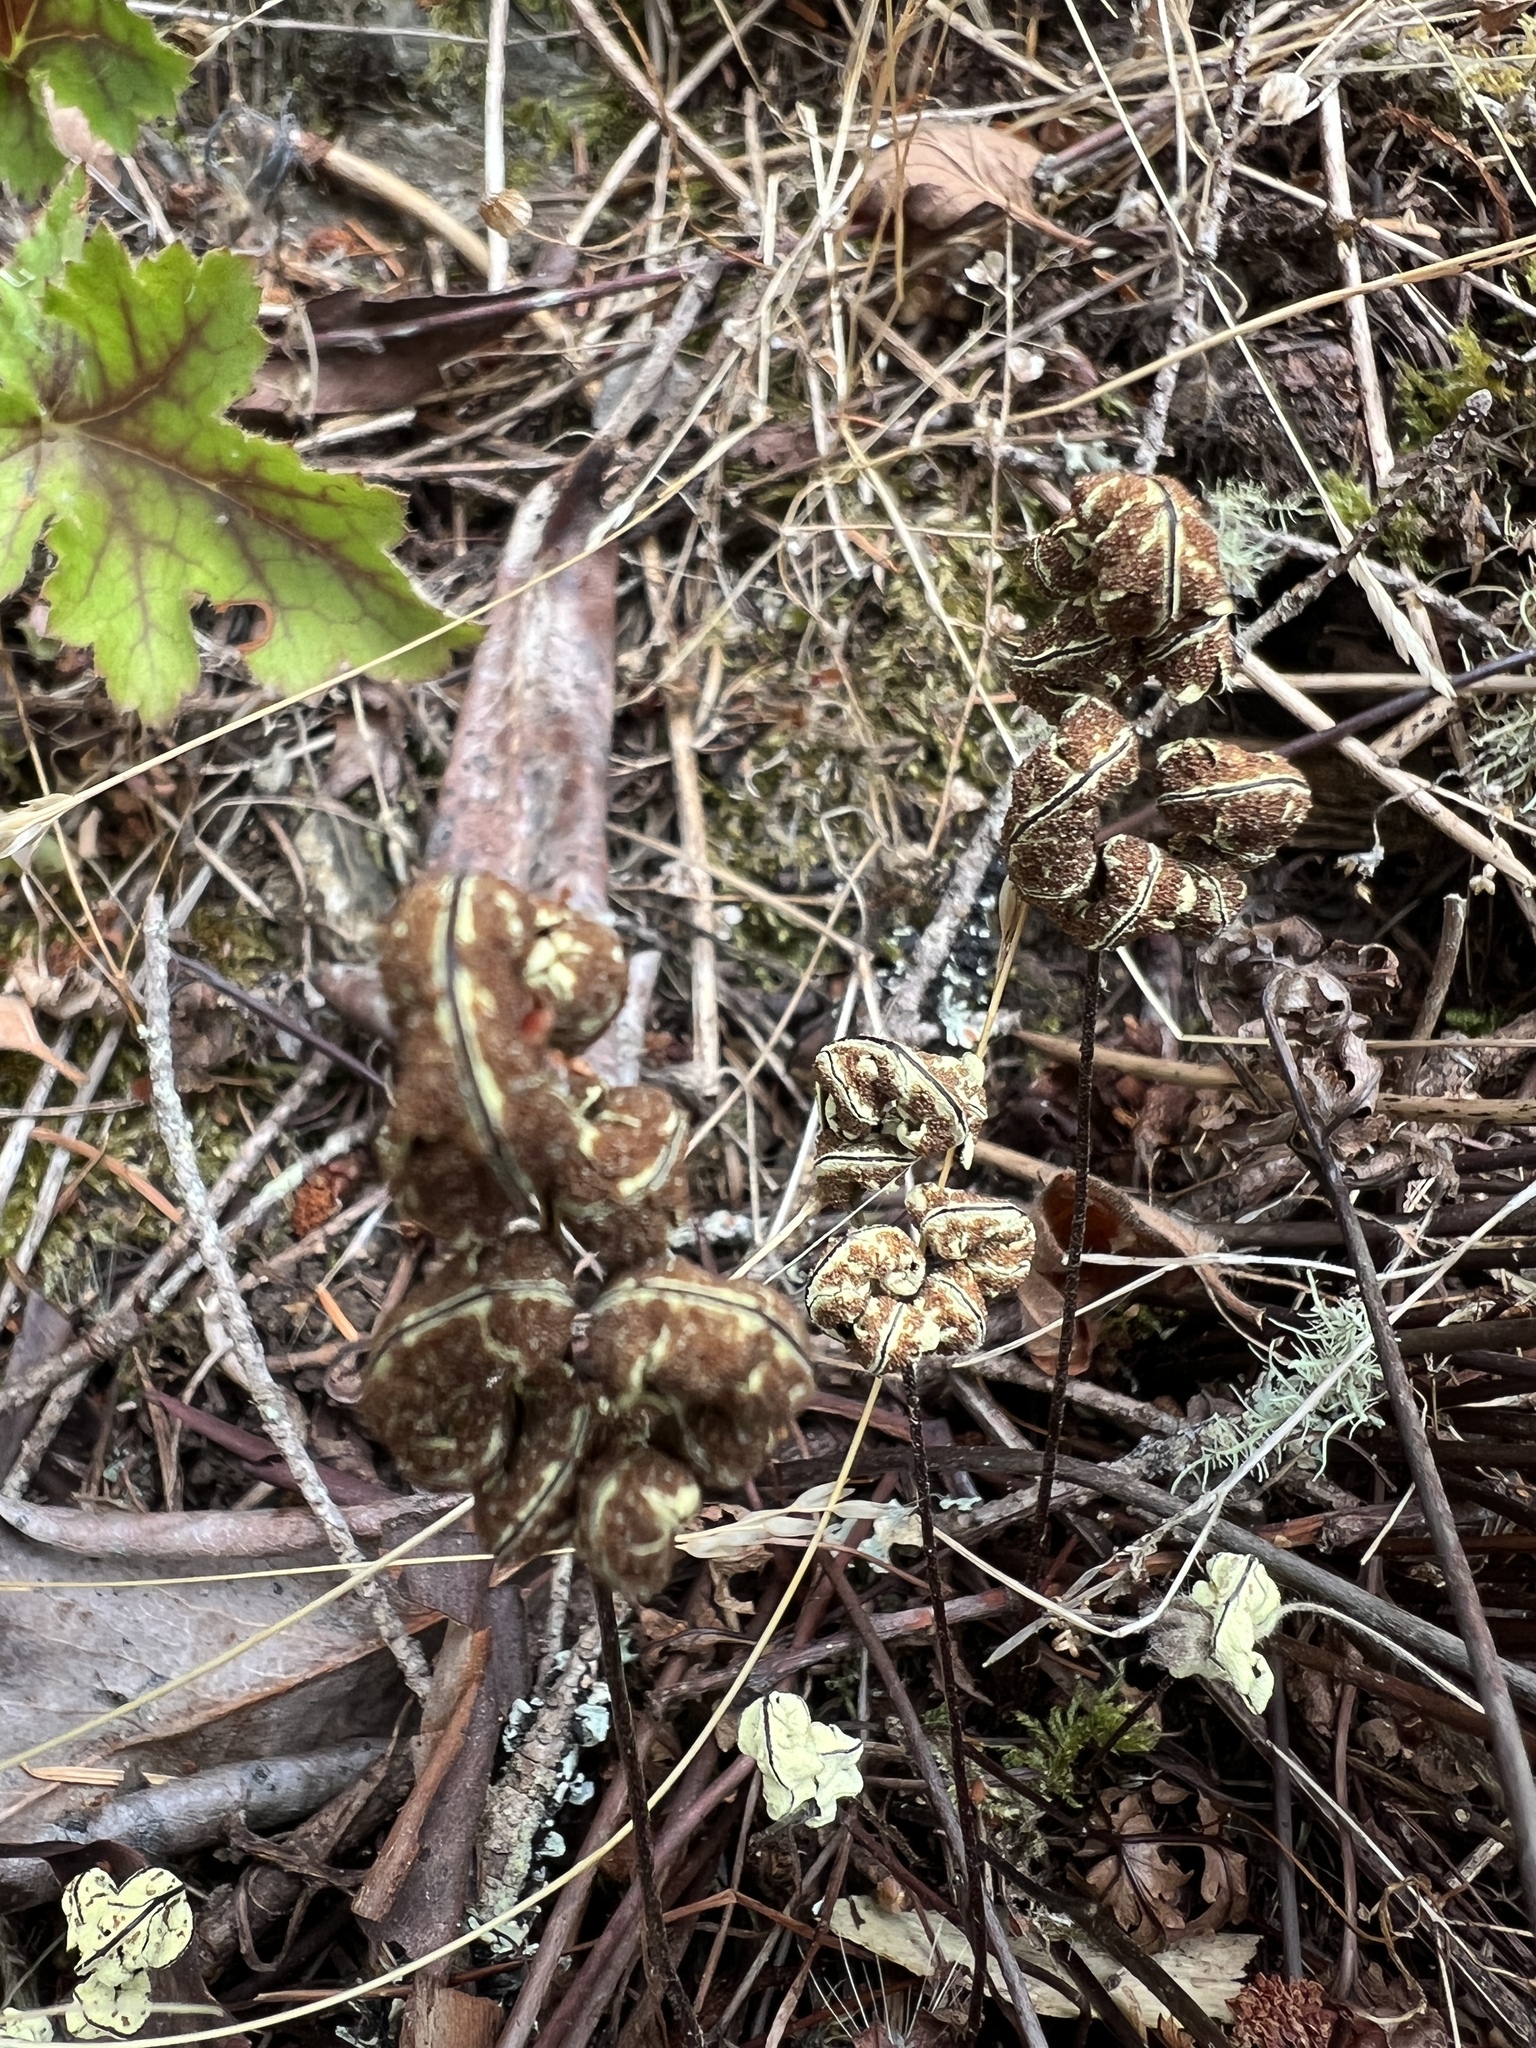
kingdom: Plantae
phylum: Tracheophyta
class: Polypodiopsida
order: Polypodiales
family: Pteridaceae
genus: Pentagramma
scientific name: Pentagramma triangularis
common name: Gold fern
